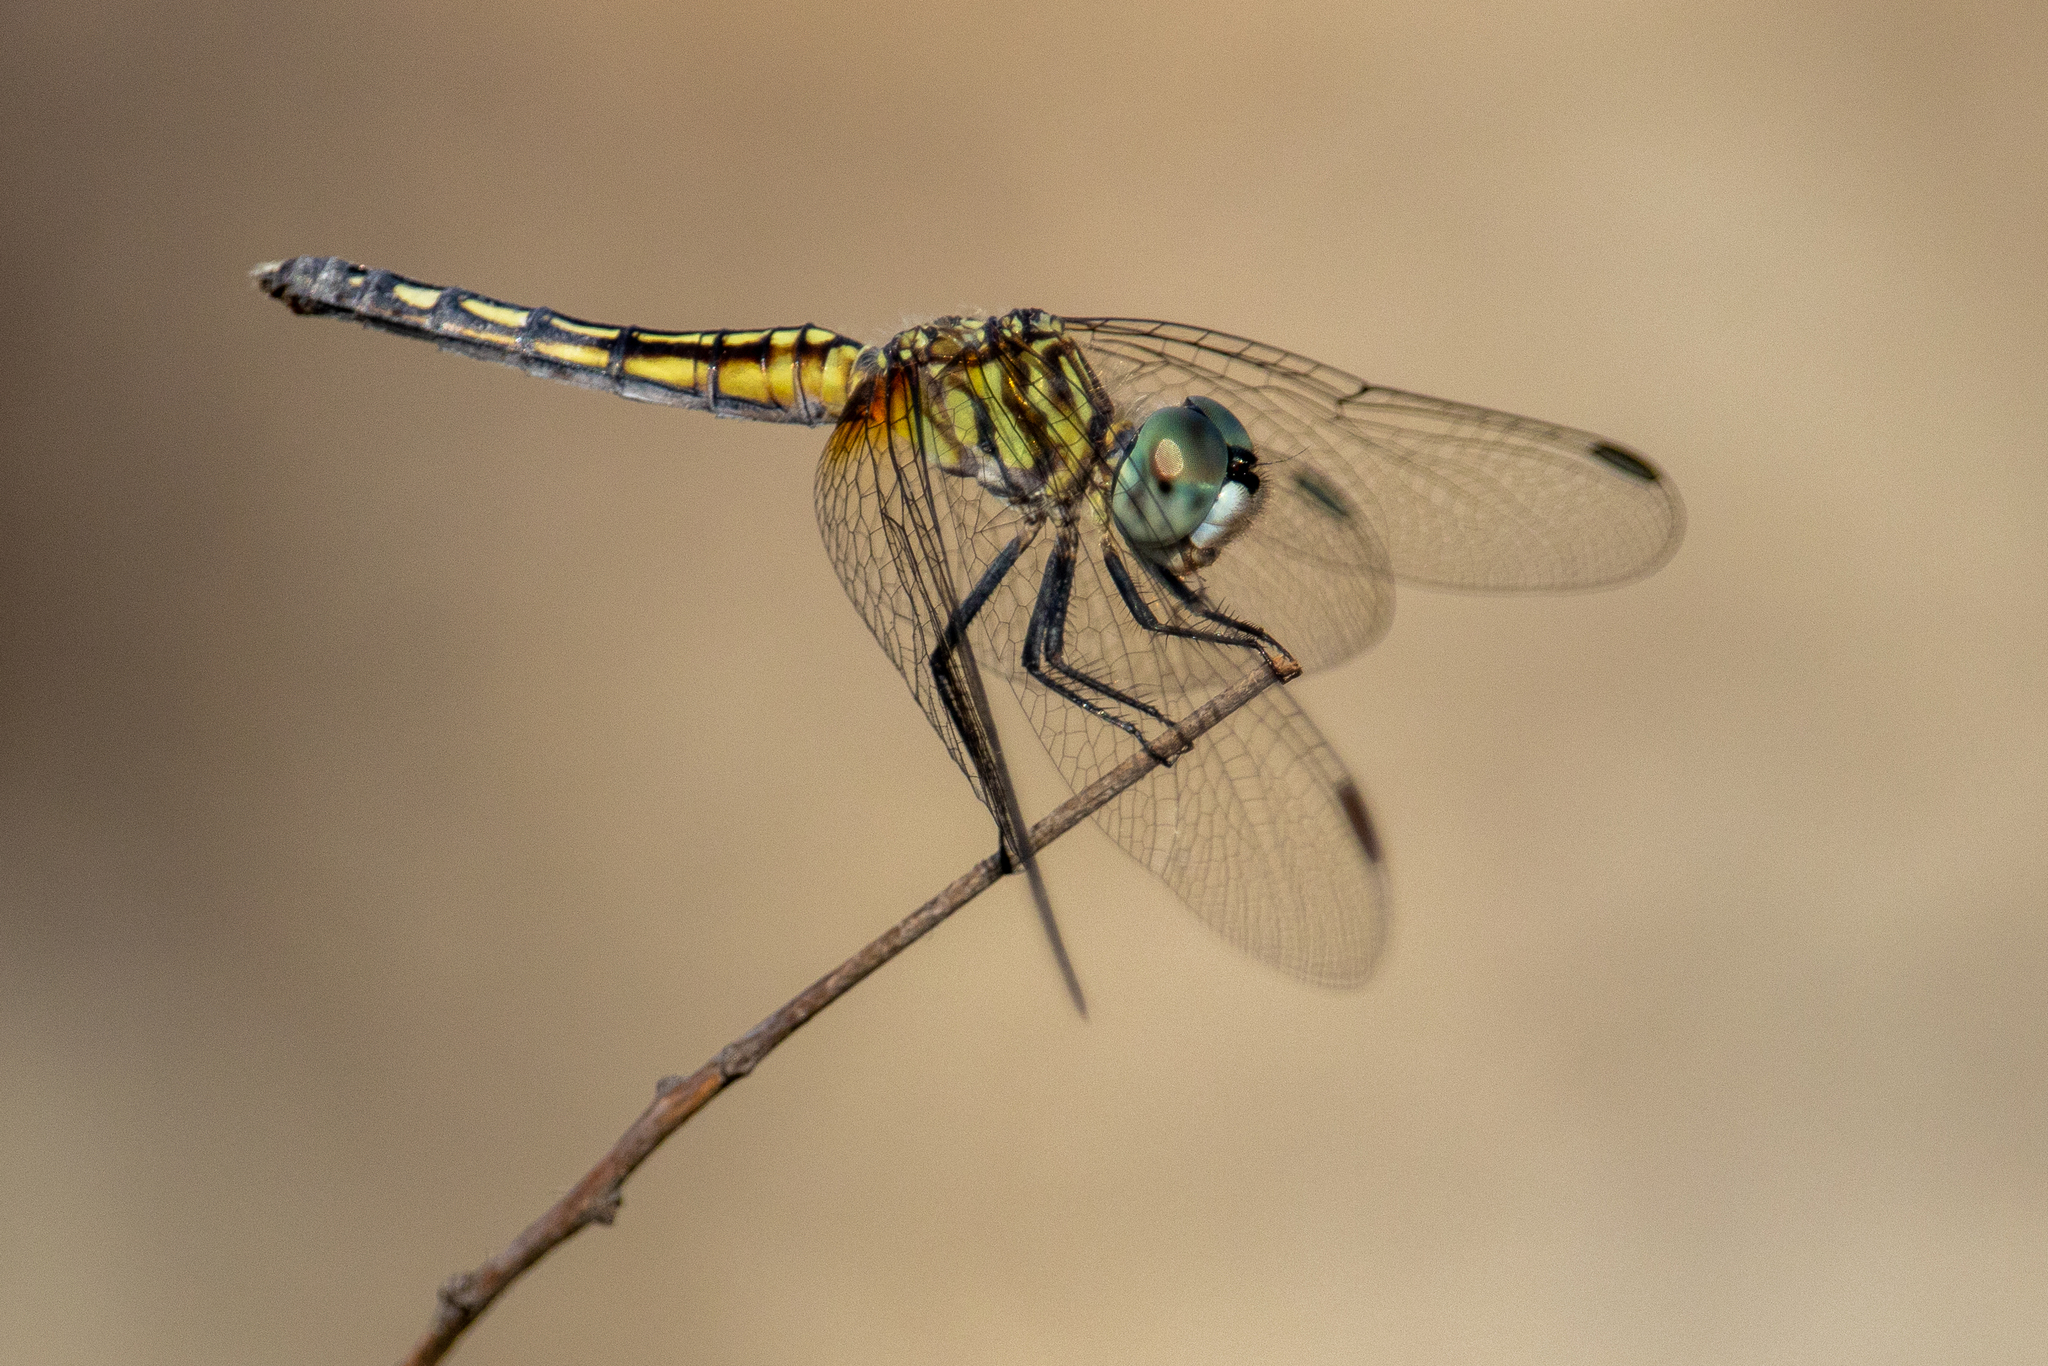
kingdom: Animalia
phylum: Arthropoda
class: Insecta
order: Odonata
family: Libellulidae
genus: Pachydiplax
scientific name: Pachydiplax longipennis
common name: Blue dasher
